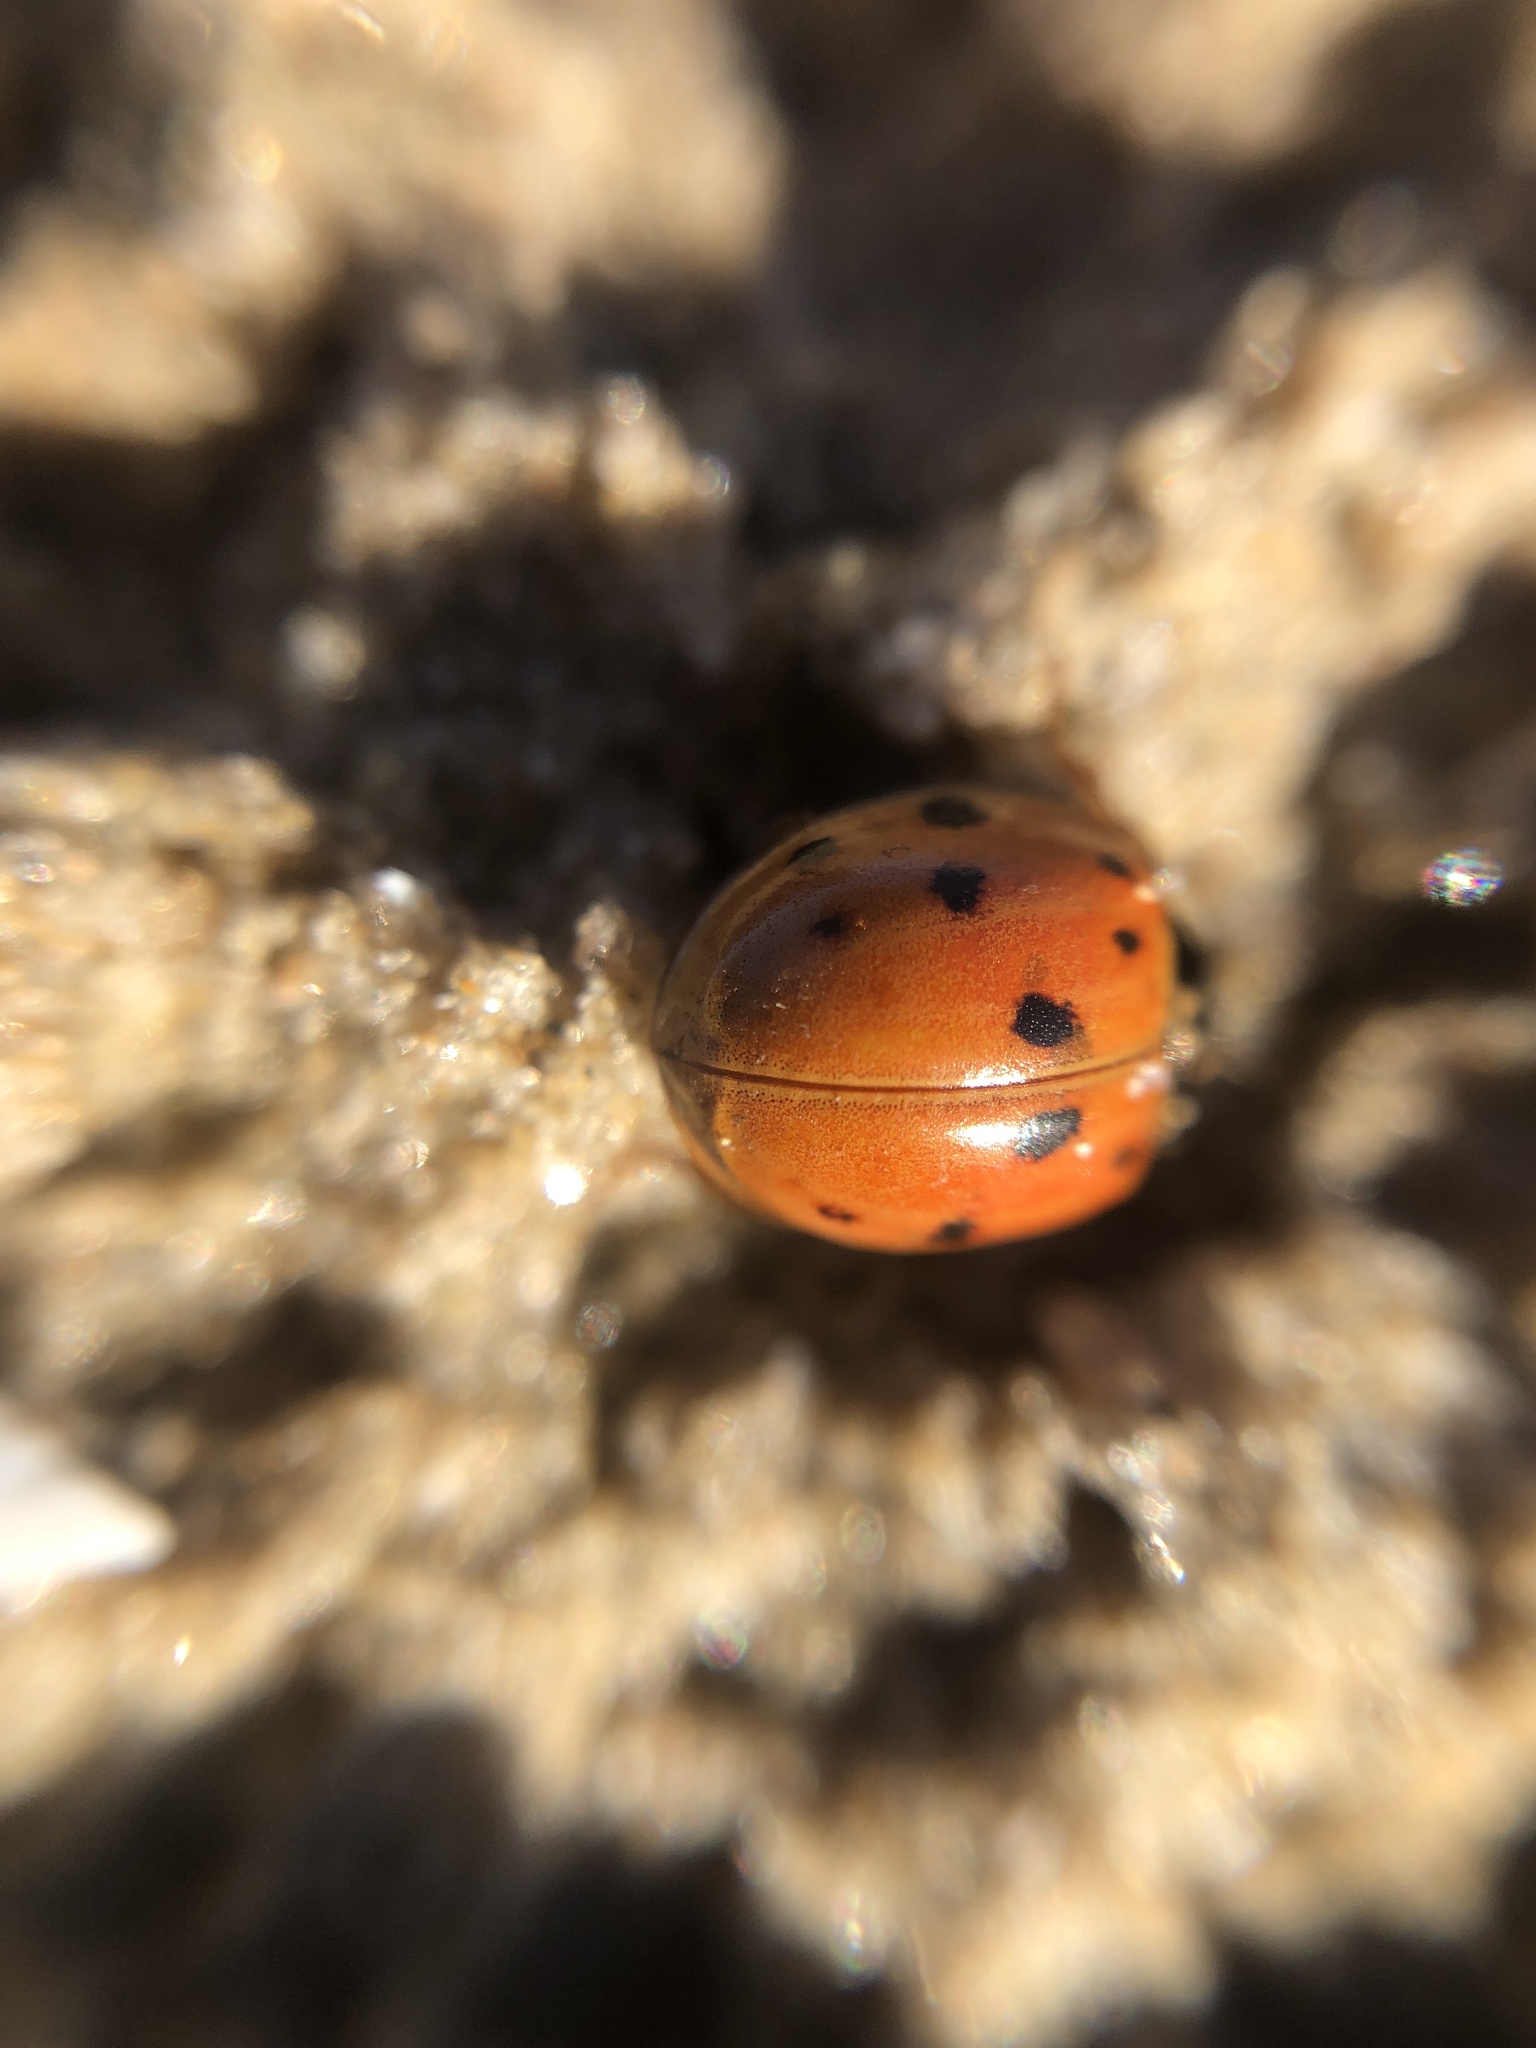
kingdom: Animalia
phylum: Arthropoda
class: Insecta
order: Coleoptera
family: Coccinellidae
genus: Harmonia
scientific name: Harmonia axyridis
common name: Harlequin ladybird
